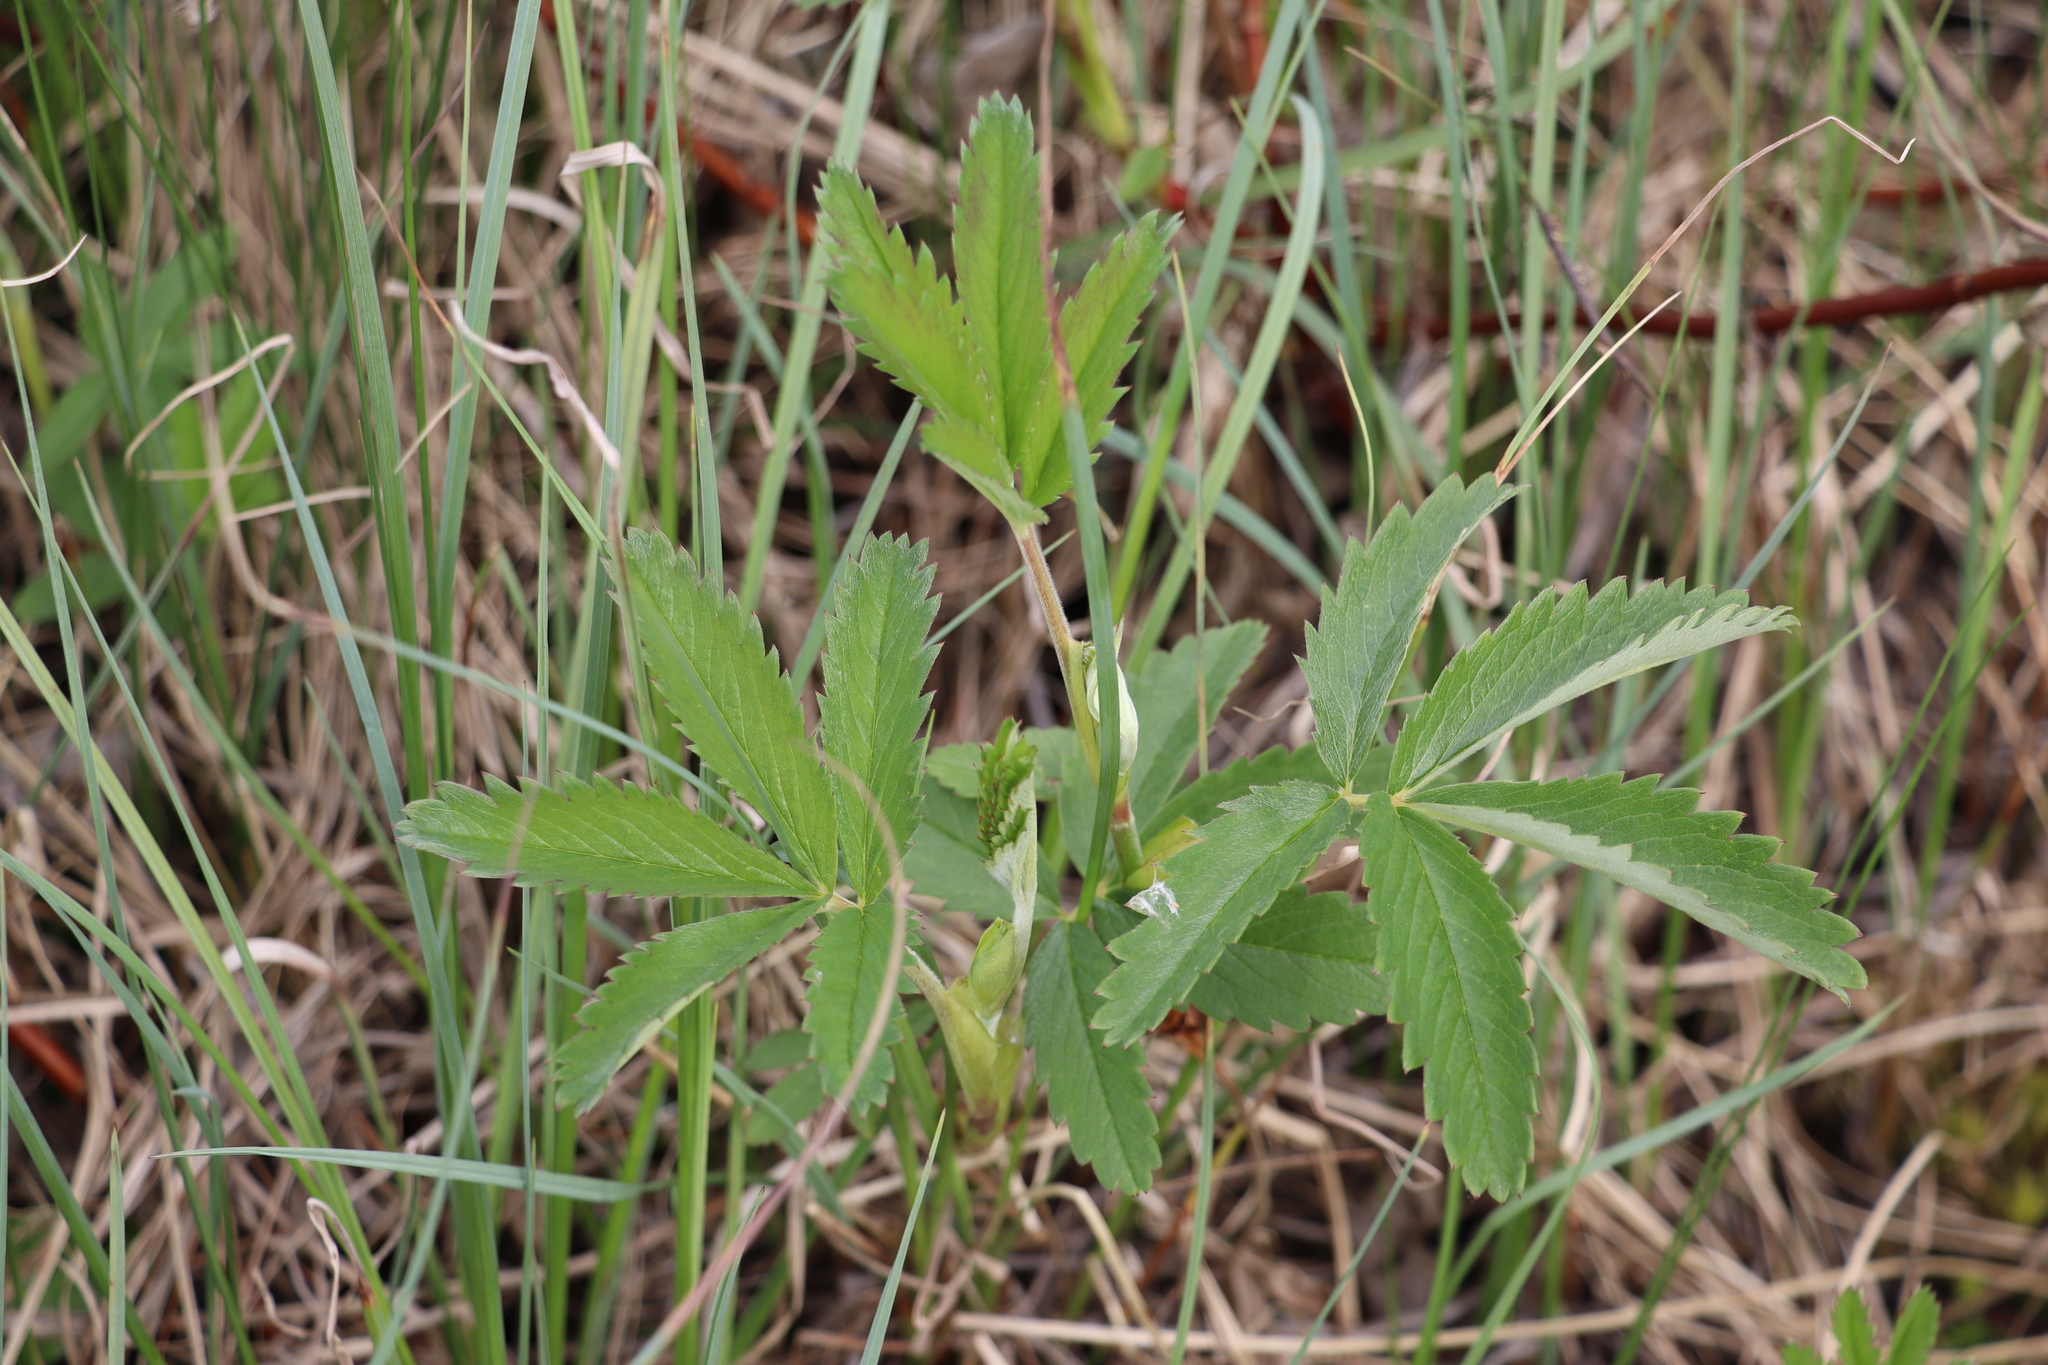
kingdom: Plantae
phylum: Tracheophyta
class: Magnoliopsida
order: Rosales
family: Rosaceae
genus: Comarum
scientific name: Comarum palustre
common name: Marsh cinquefoil
